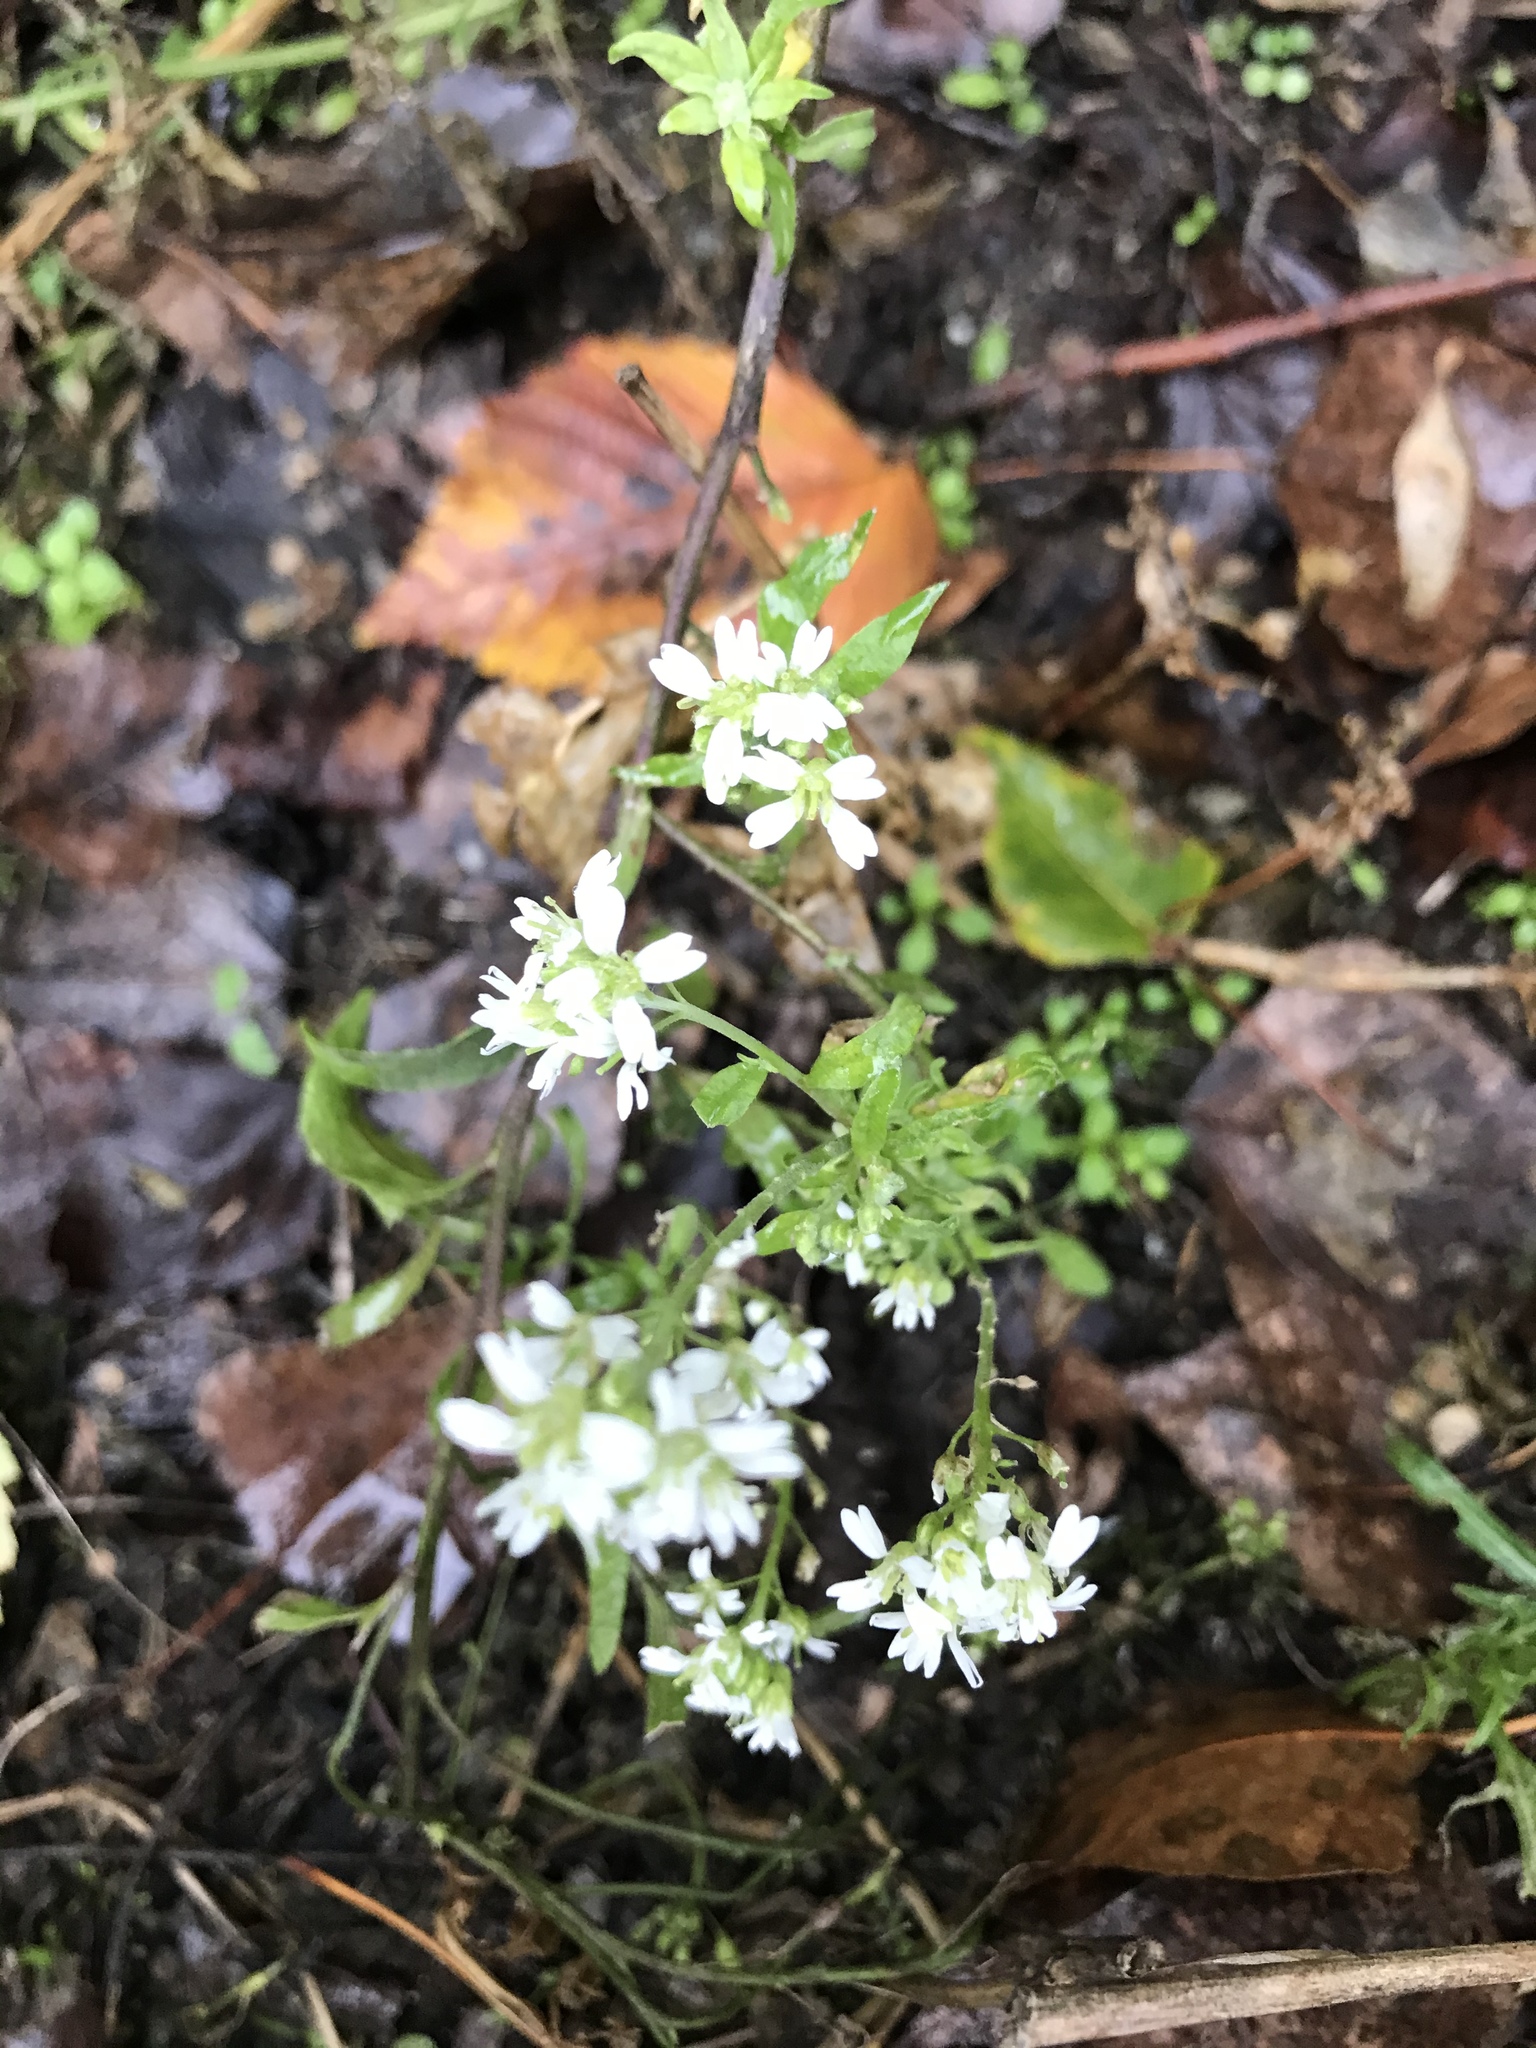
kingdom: Plantae
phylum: Tracheophyta
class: Magnoliopsida
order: Brassicales
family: Brassicaceae
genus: Berteroa
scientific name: Berteroa incana
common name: Hoary alison
